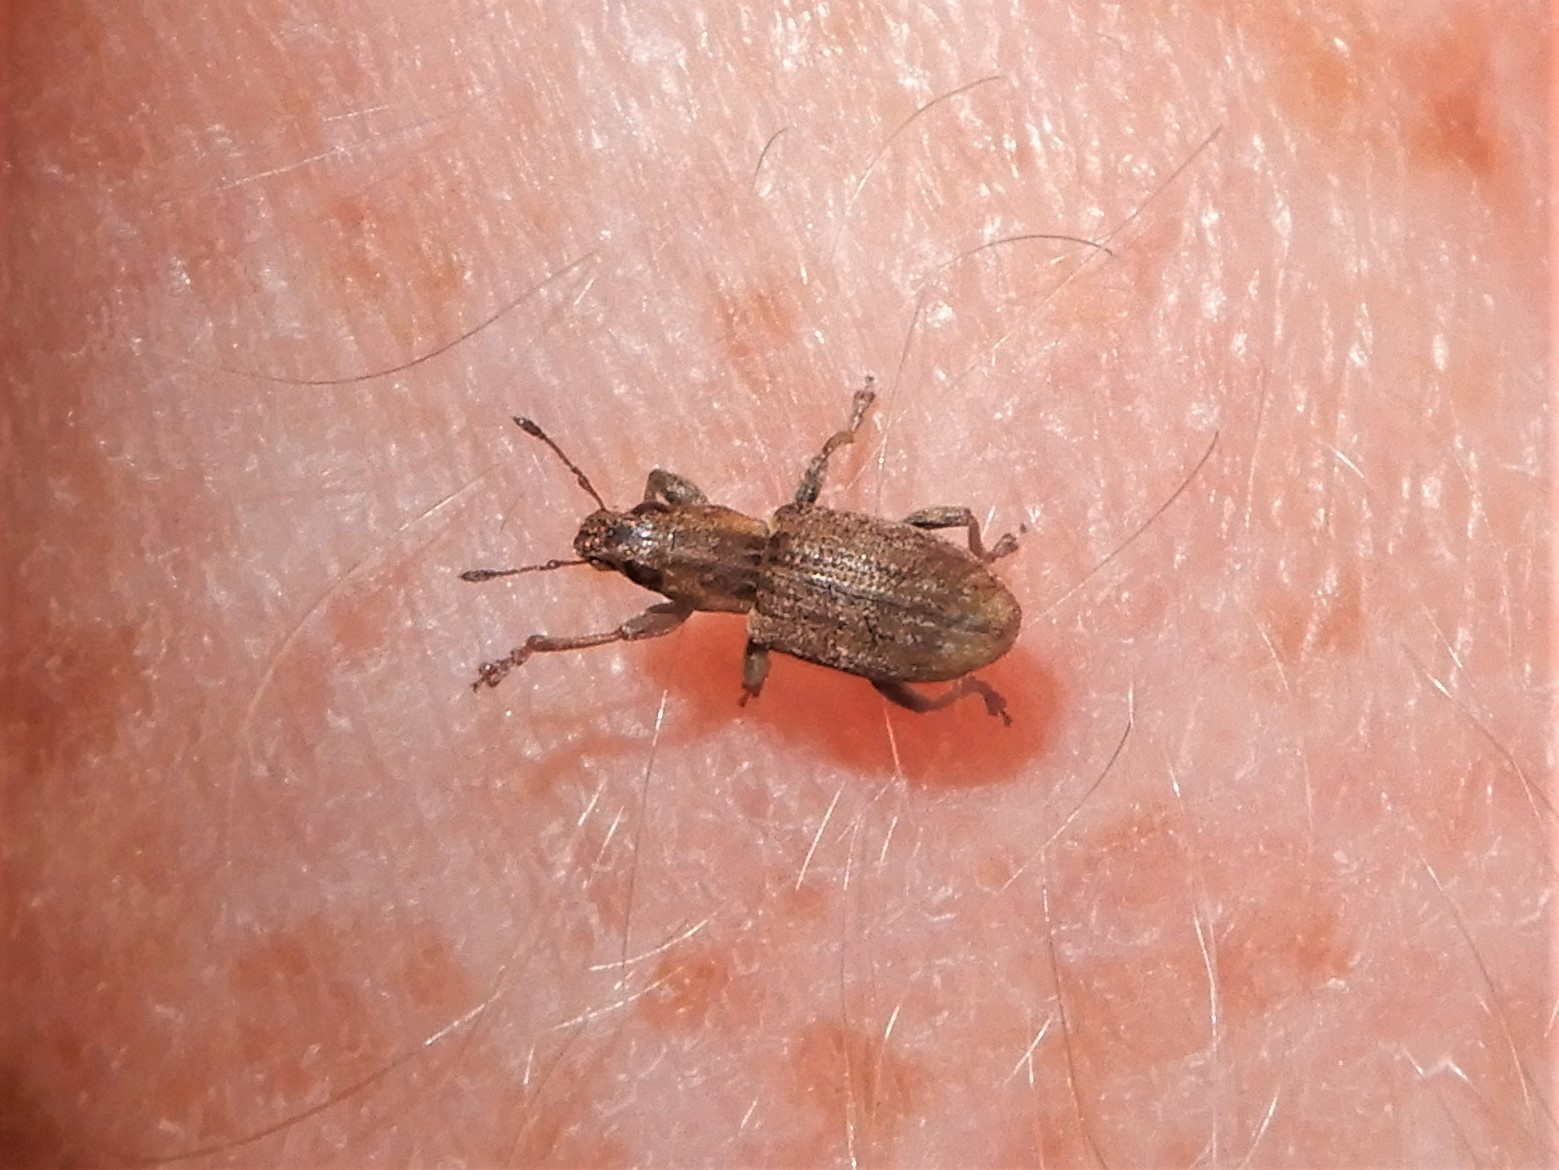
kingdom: Animalia
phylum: Arthropoda
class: Insecta
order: Coleoptera
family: Curculionidae
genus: Sitona
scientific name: Sitona obsoletus
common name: Weevil
